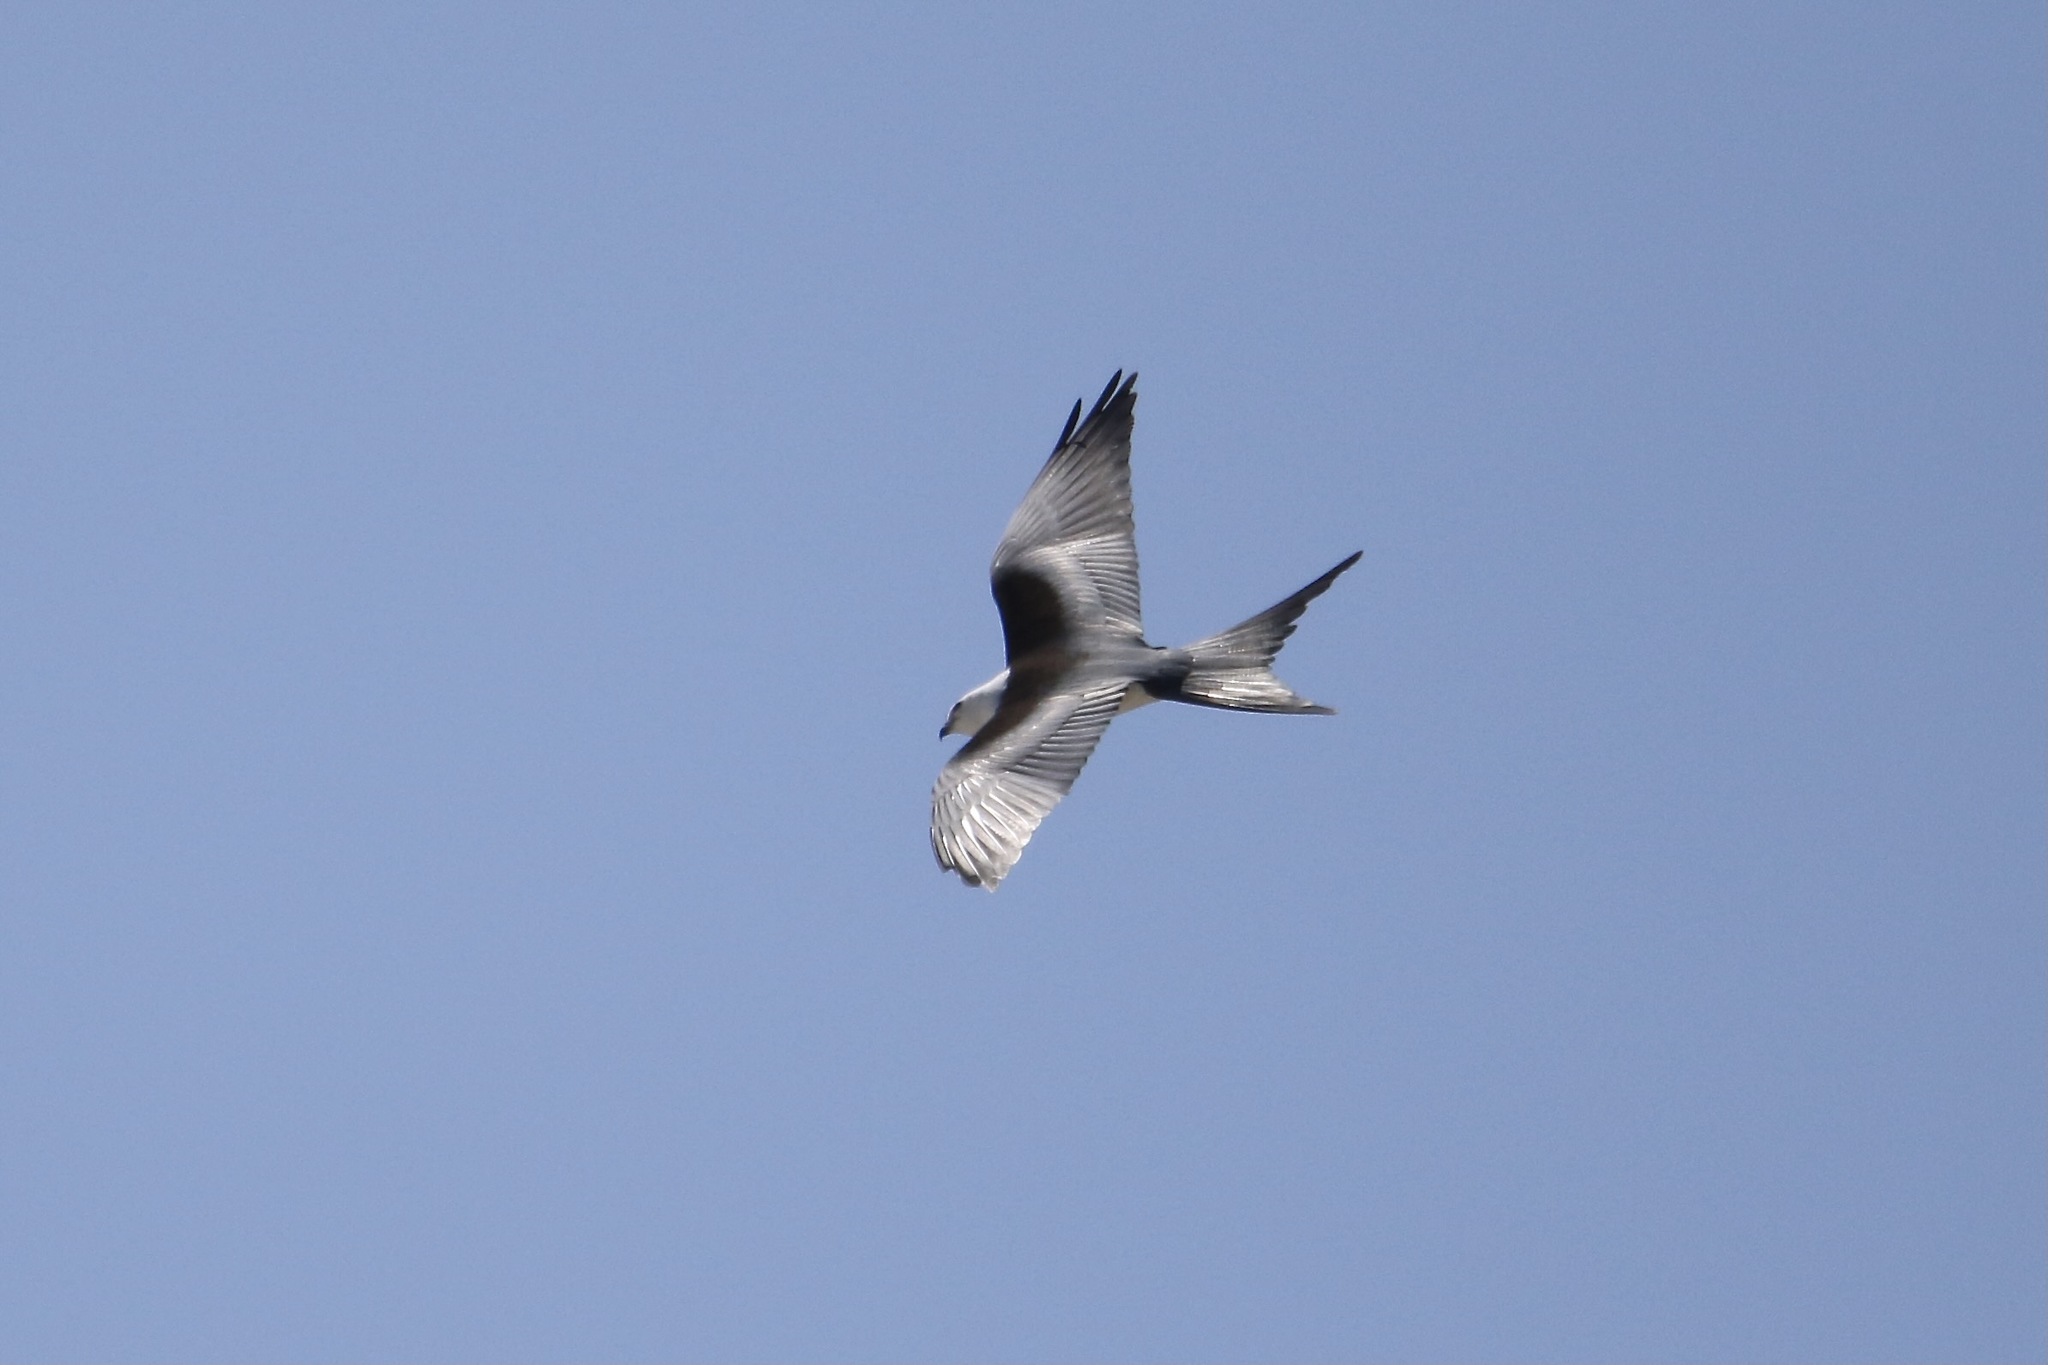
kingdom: Animalia
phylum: Chordata
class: Aves
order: Accipitriformes
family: Accipitridae
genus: Elanoides
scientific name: Elanoides forficatus
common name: Swallow-tailed kite
